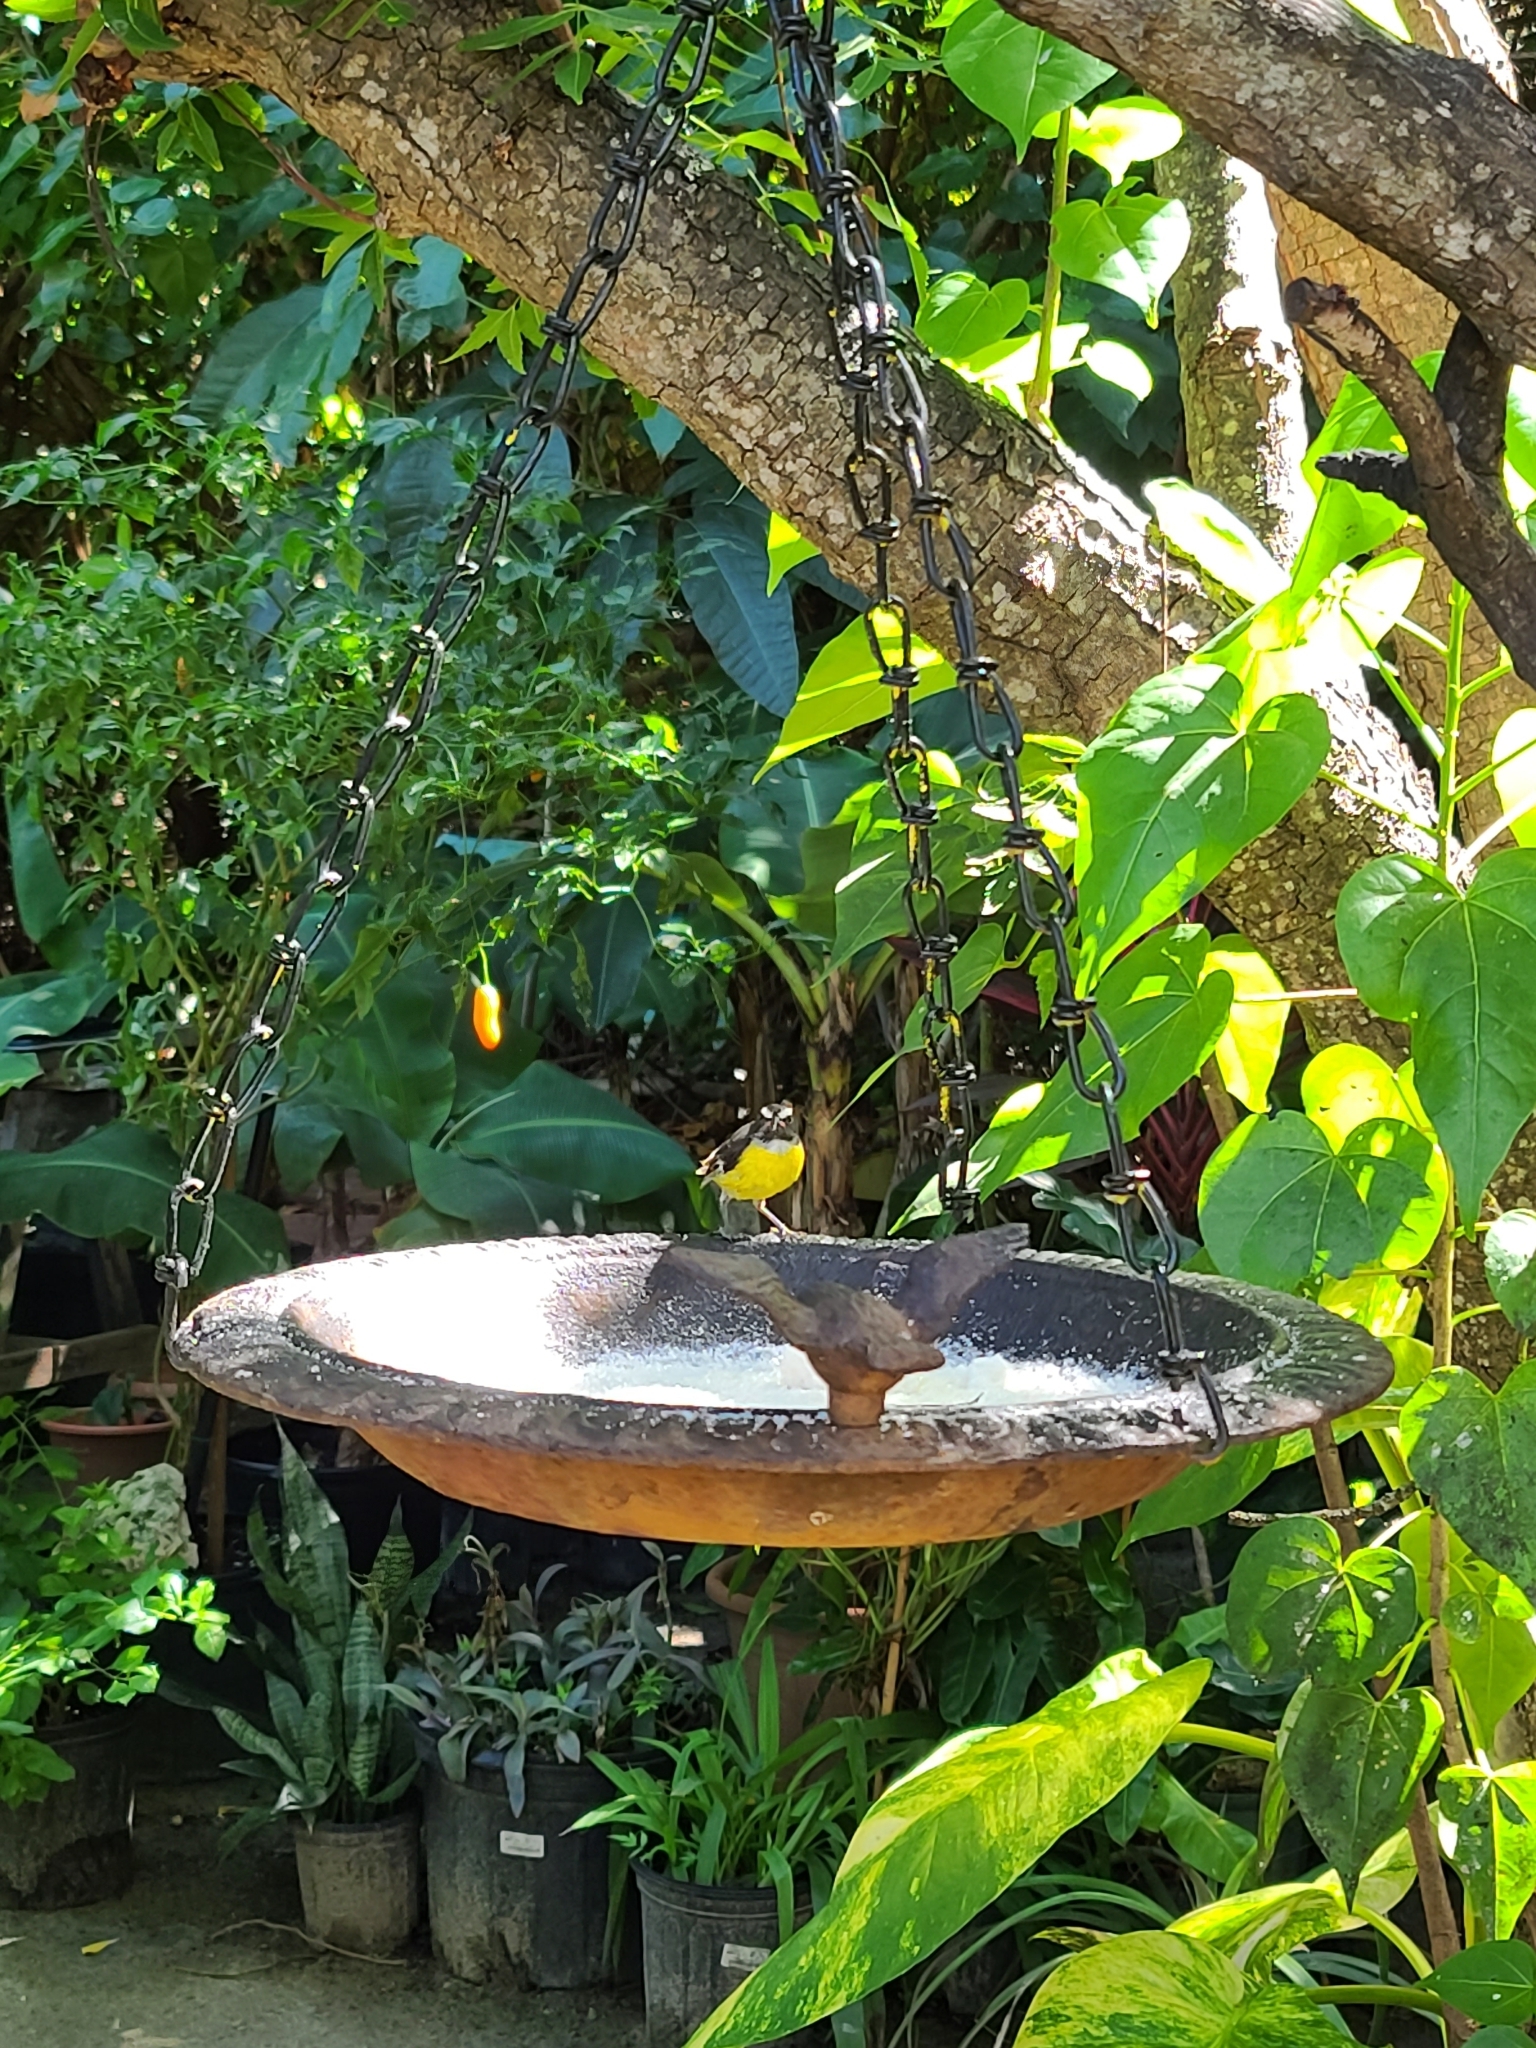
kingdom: Animalia
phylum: Chordata
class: Aves
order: Passeriformes
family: Thraupidae
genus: Coereba
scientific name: Coereba flaveola
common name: Bananaquit
